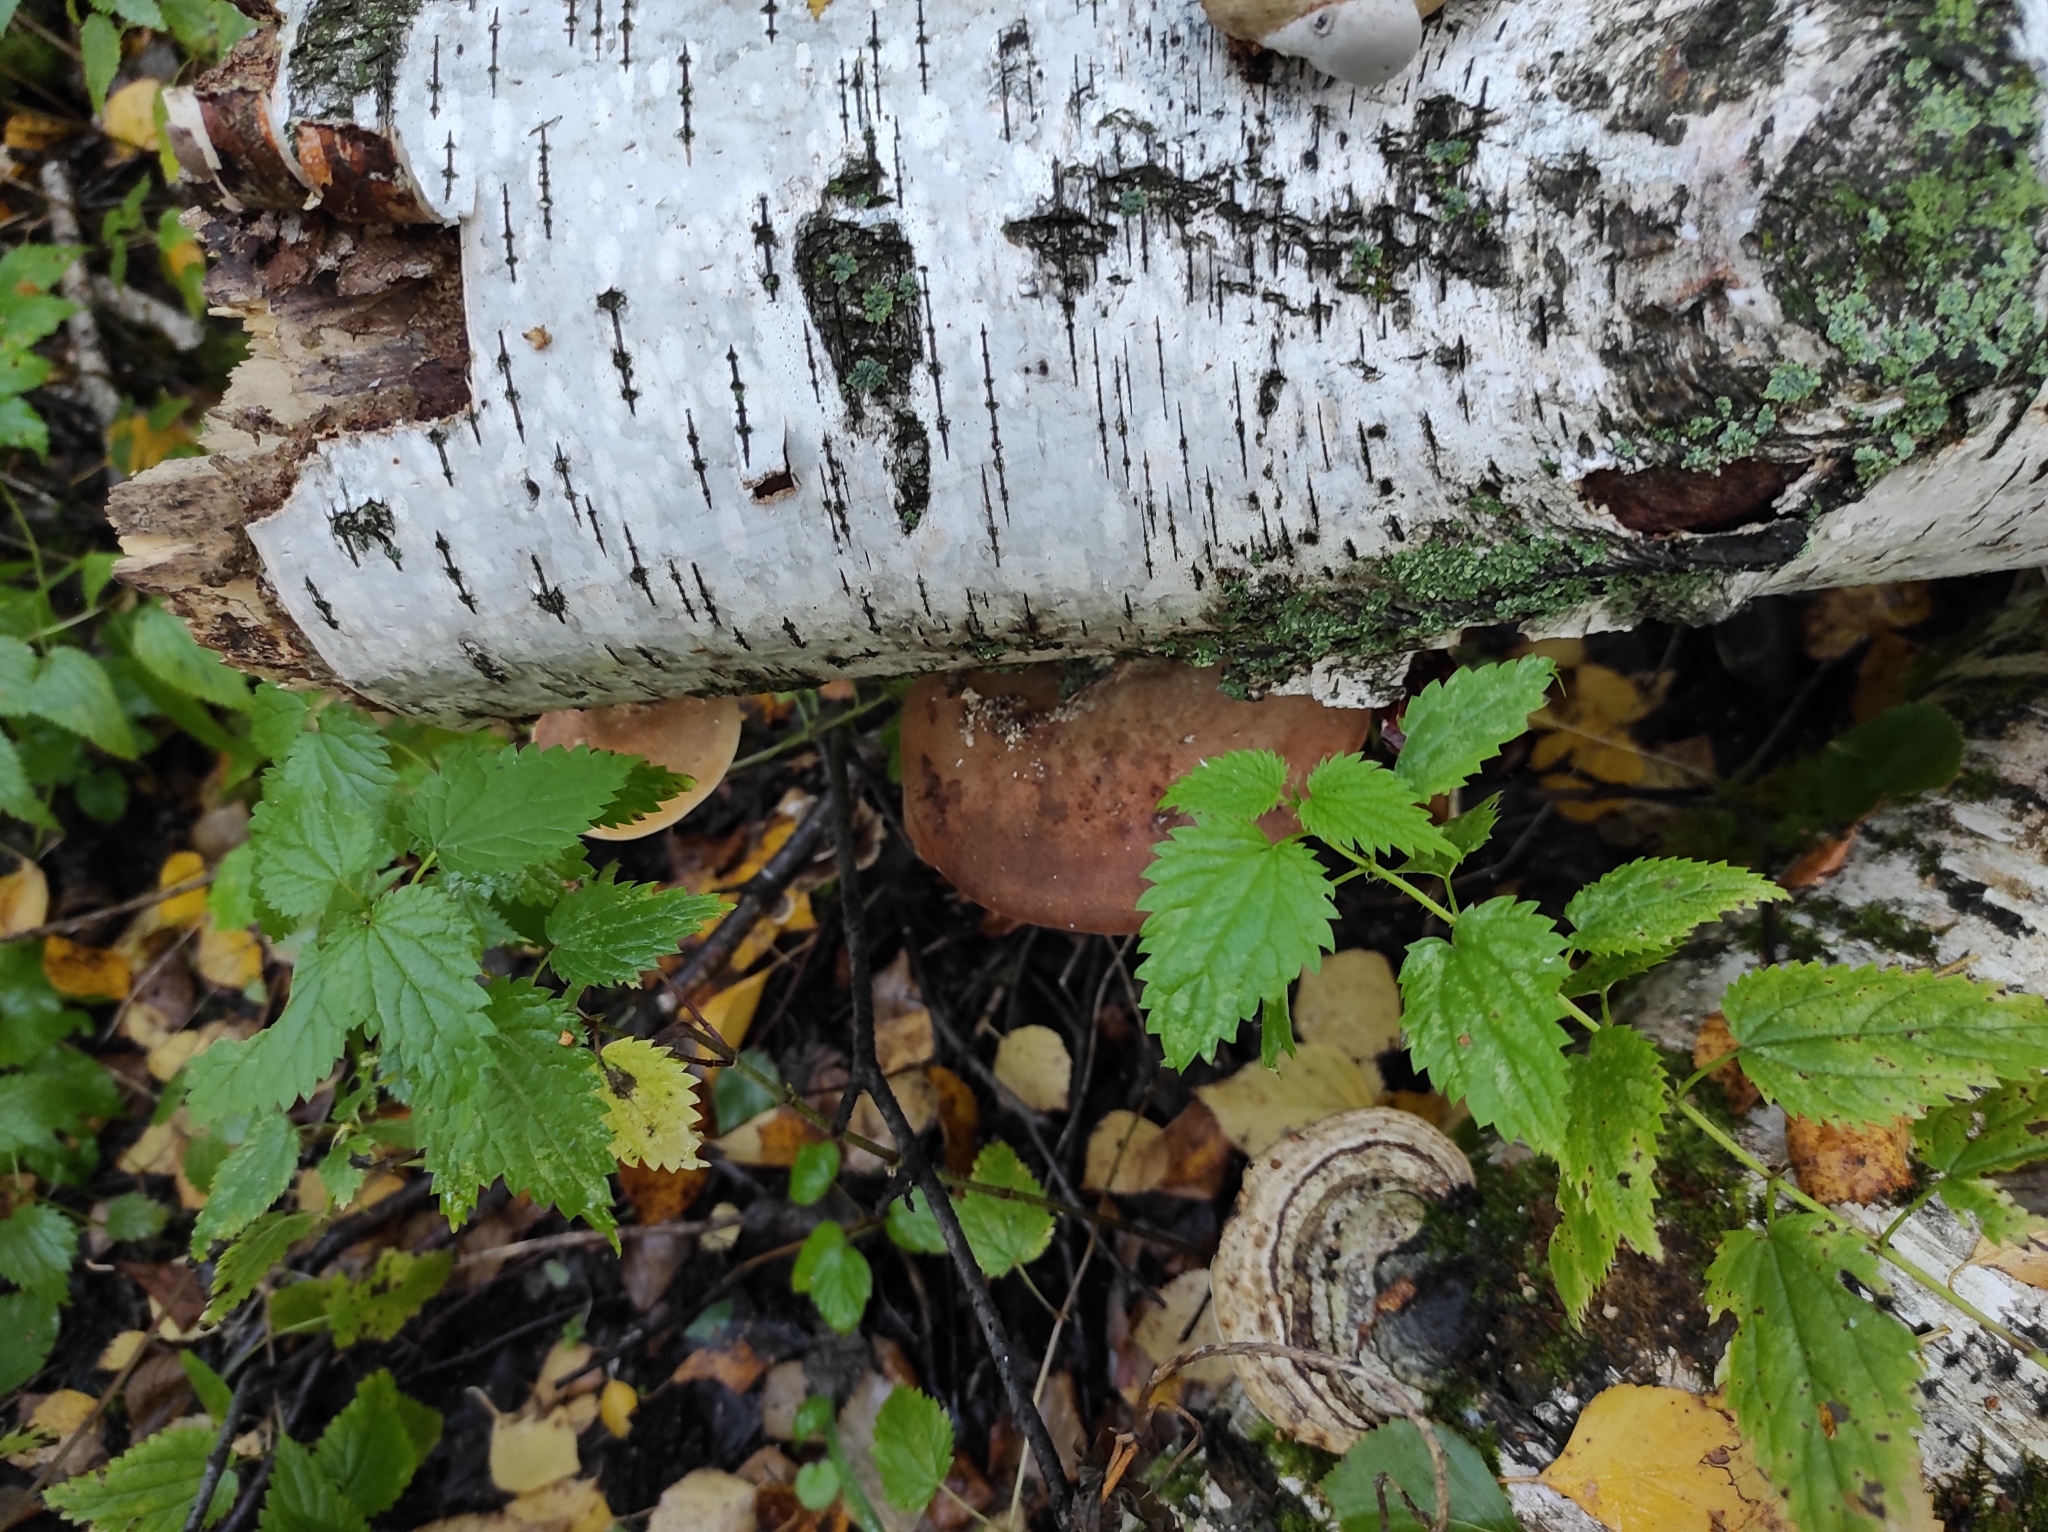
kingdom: Fungi
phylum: Basidiomycota
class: Agaricomycetes
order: Polyporales
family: Fomitopsidaceae
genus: Fomitopsis
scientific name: Fomitopsis betulina
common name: Birch polypore
